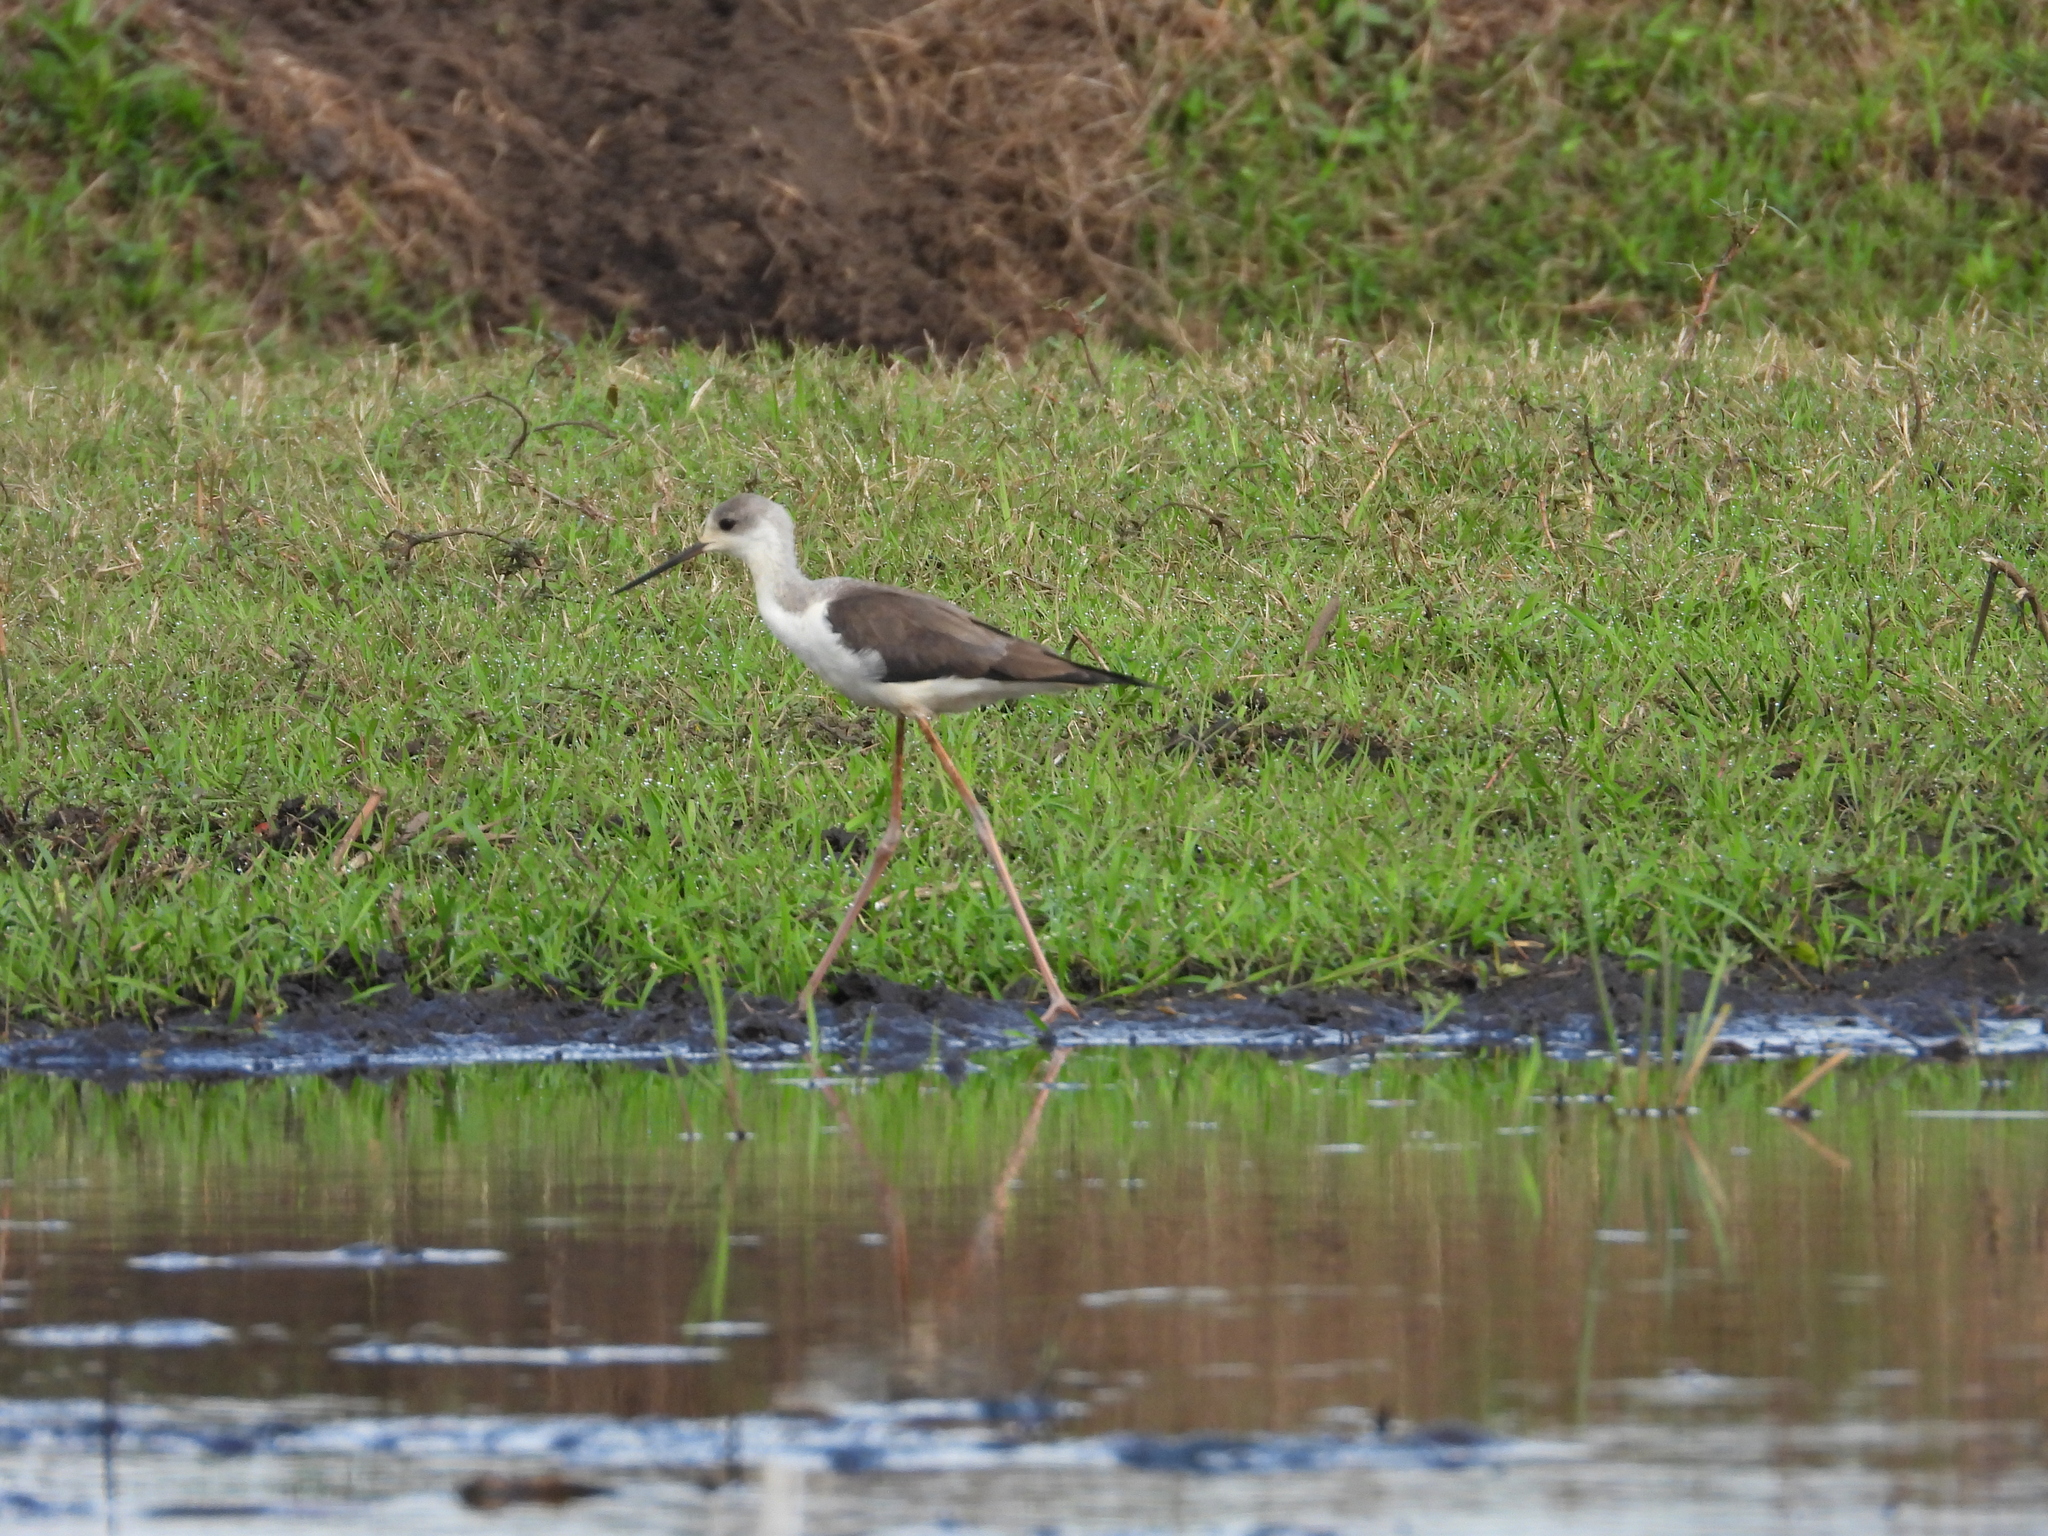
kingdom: Animalia
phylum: Chordata
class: Aves
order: Charadriiformes
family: Recurvirostridae
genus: Himantopus
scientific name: Himantopus himantopus
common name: Black-winged stilt
